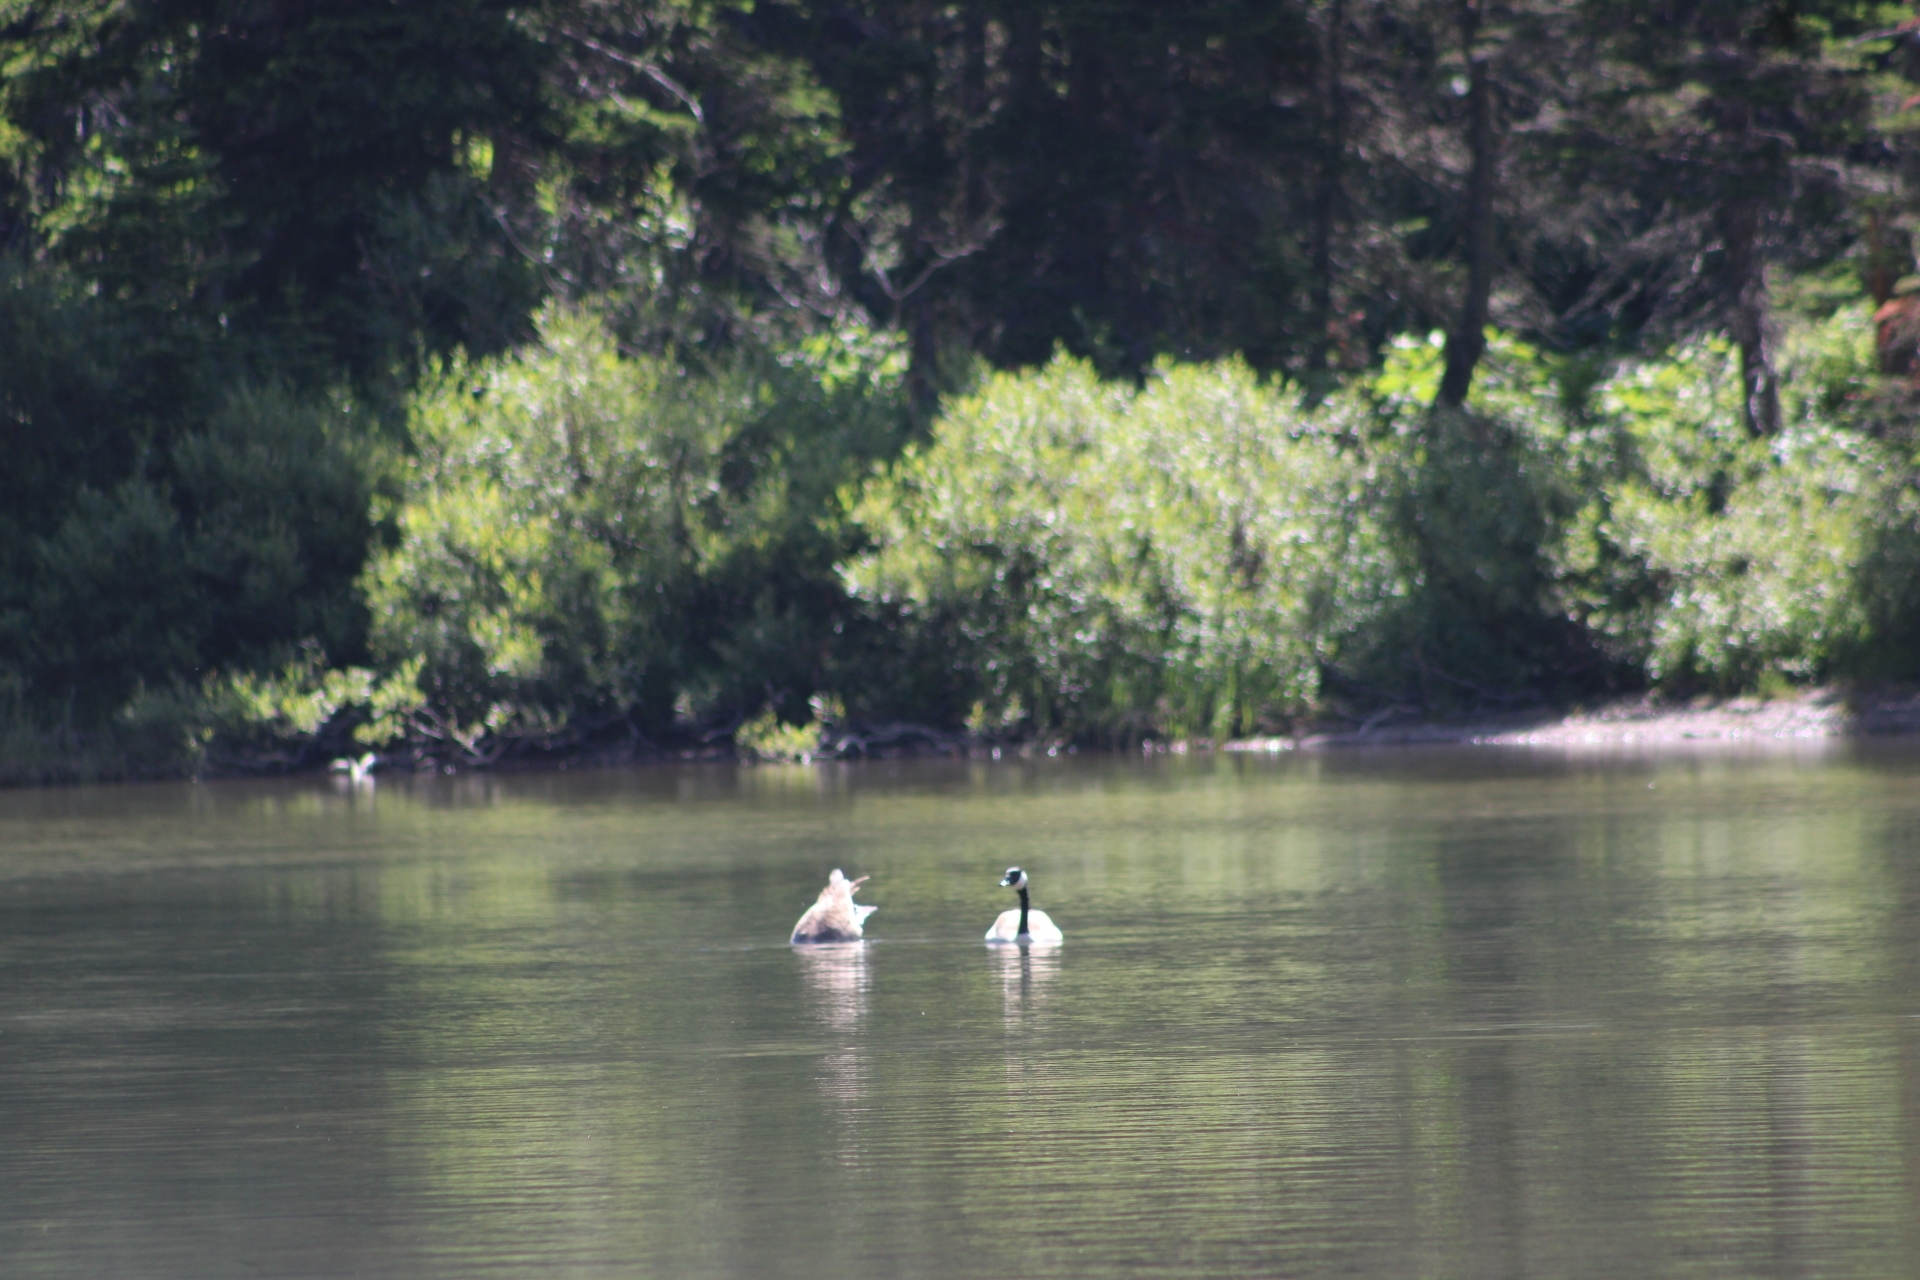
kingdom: Animalia
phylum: Chordata
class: Aves
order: Anseriformes
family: Anatidae
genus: Branta
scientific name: Branta canadensis
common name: Canada goose
